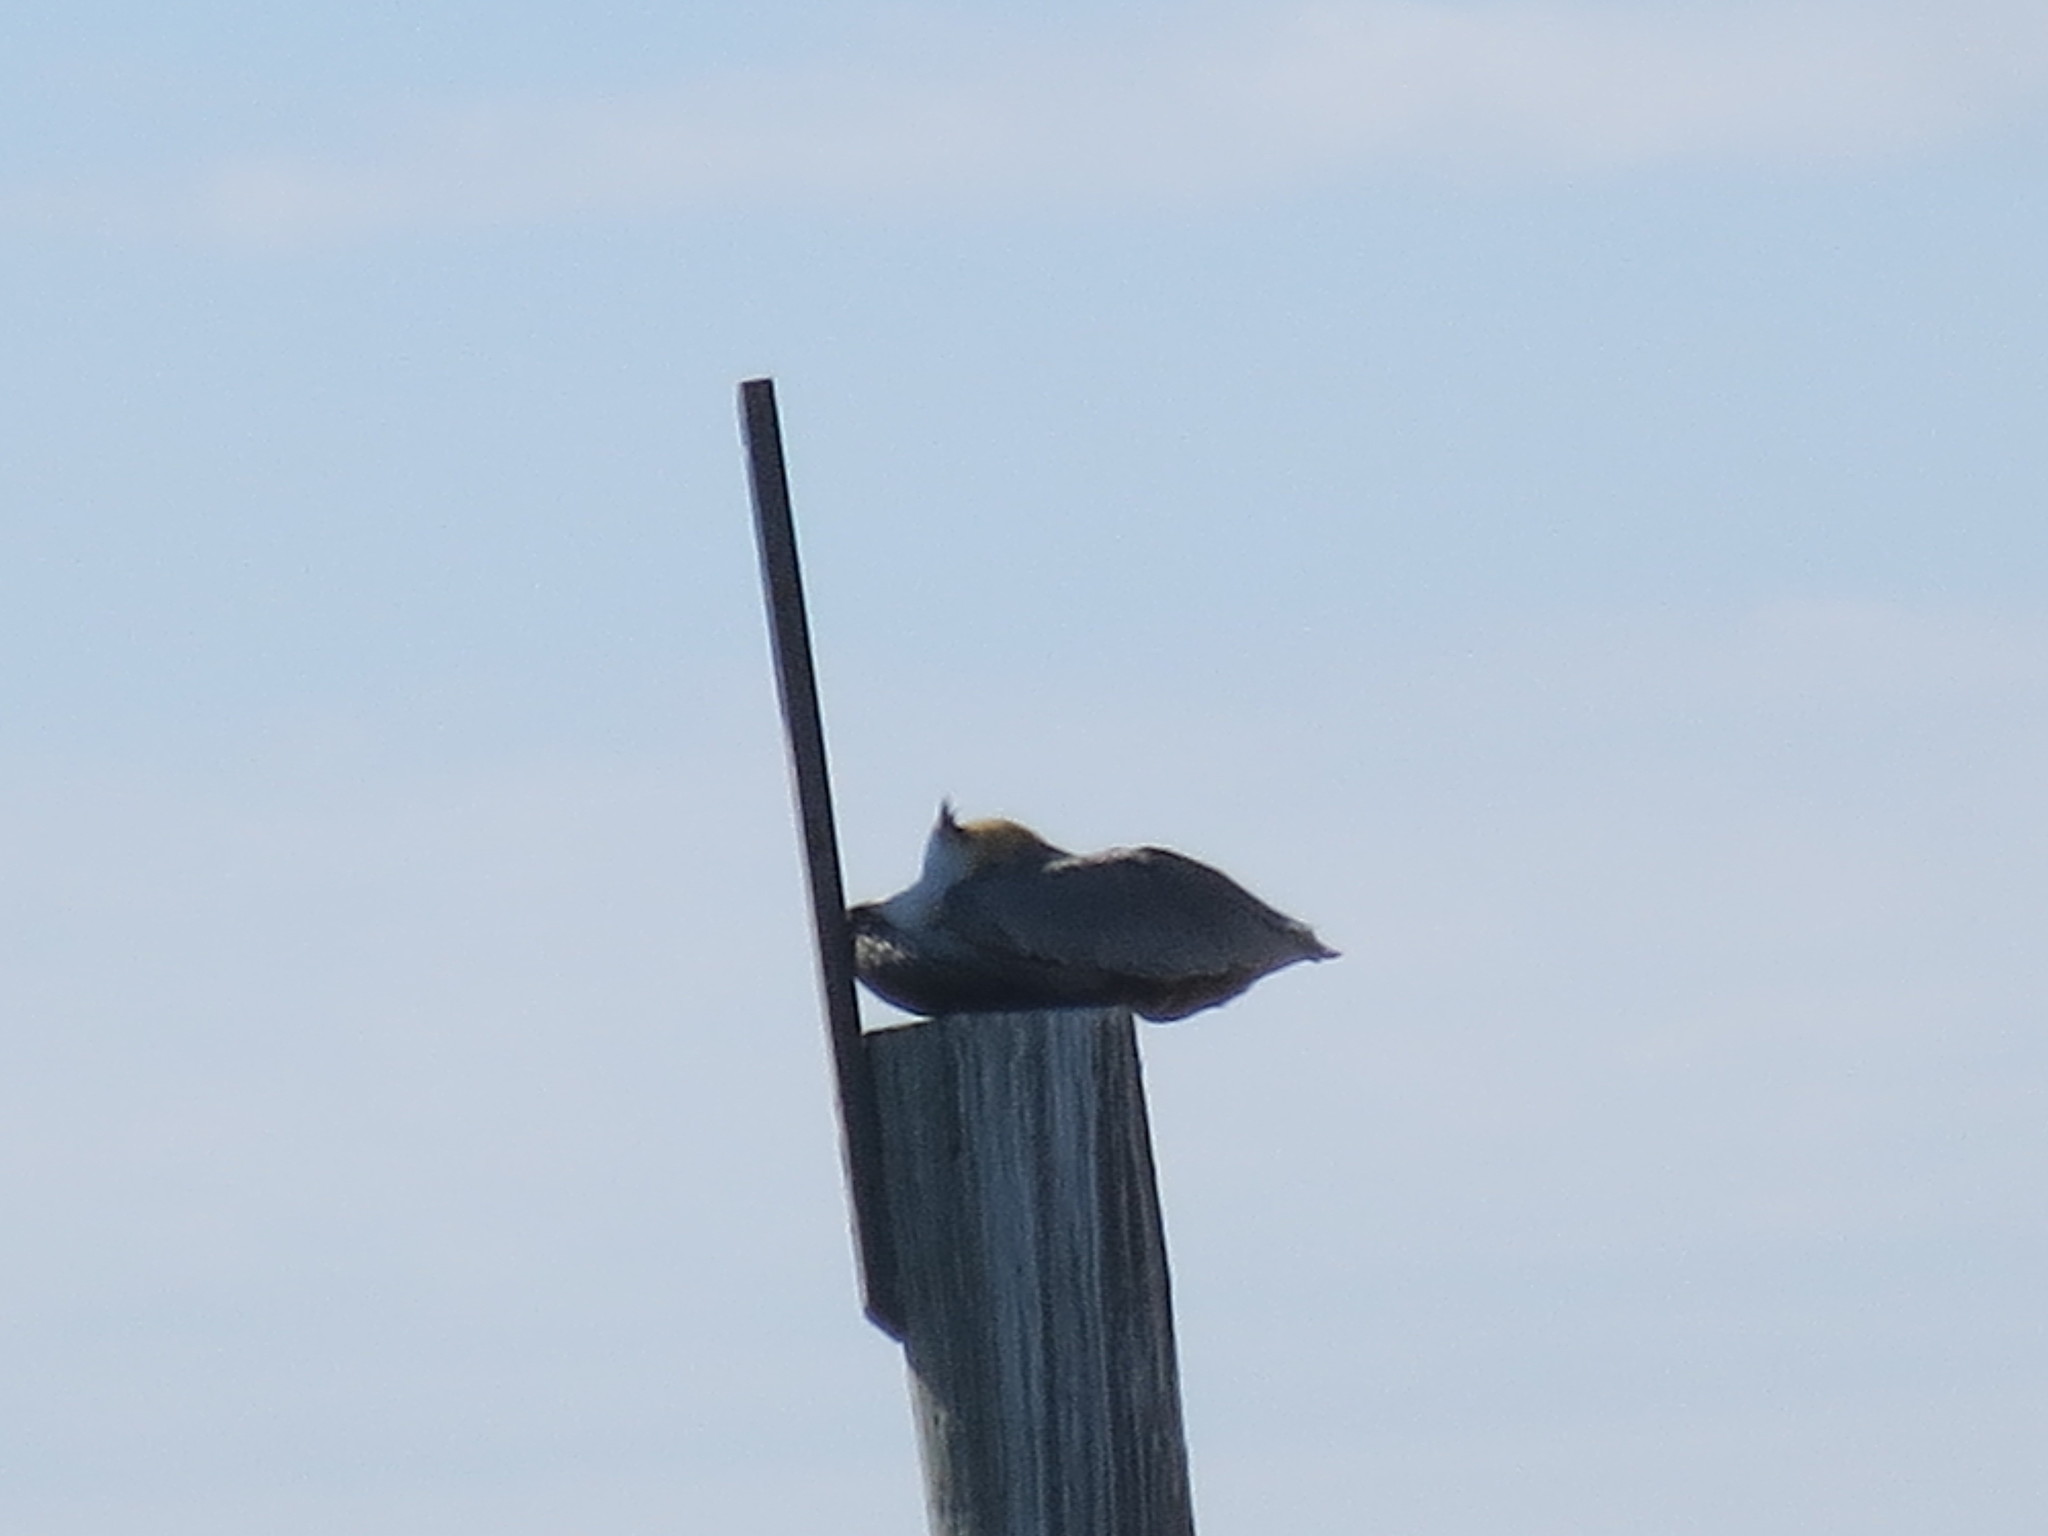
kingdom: Animalia
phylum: Chordata
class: Aves
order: Pelecaniformes
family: Pelecanidae
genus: Pelecanus
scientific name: Pelecanus occidentalis
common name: Brown pelican
